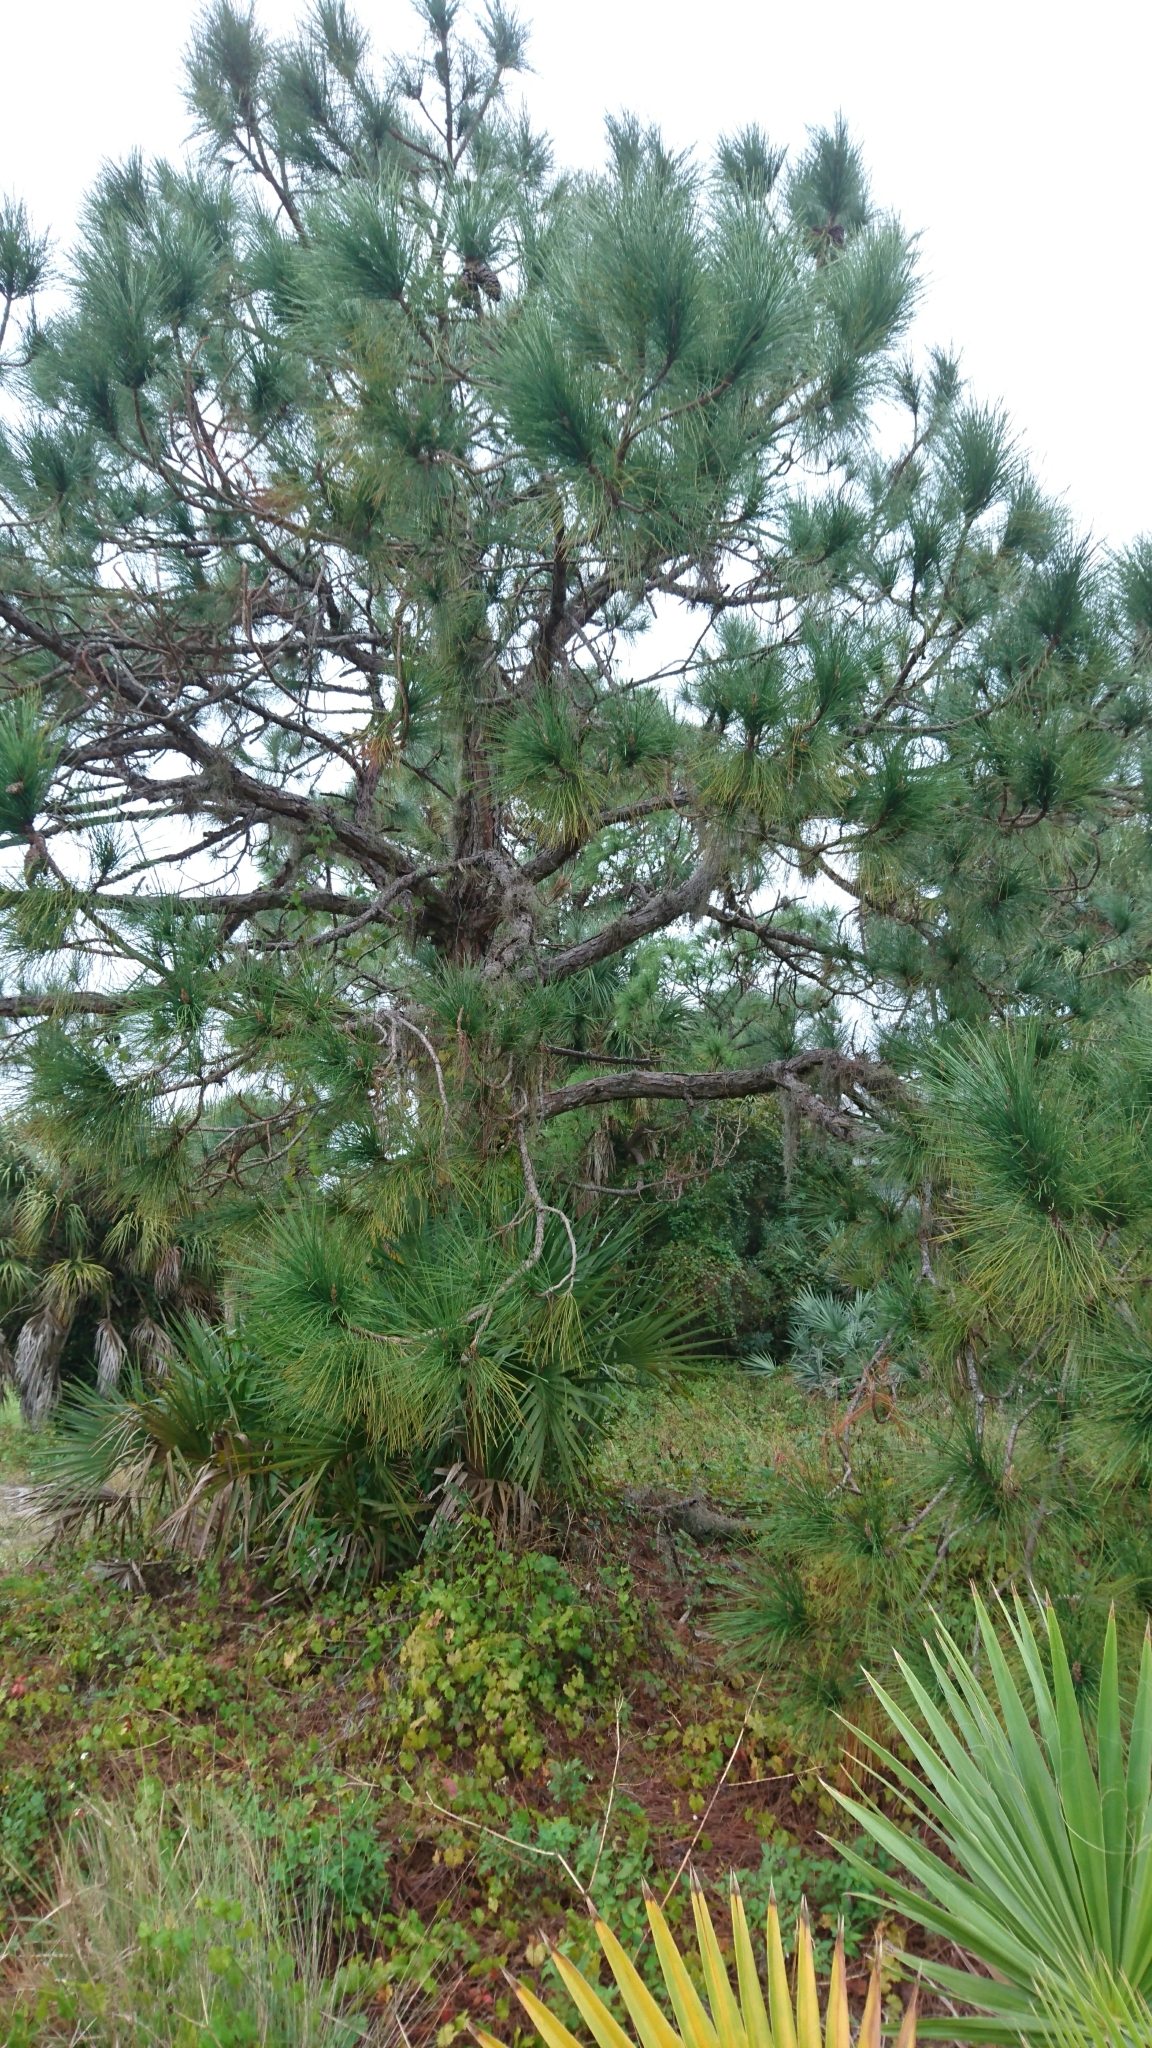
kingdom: Plantae
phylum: Tracheophyta
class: Pinopsida
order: Pinales
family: Pinaceae
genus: Pinus
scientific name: Pinus elliottii
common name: Slash pine
